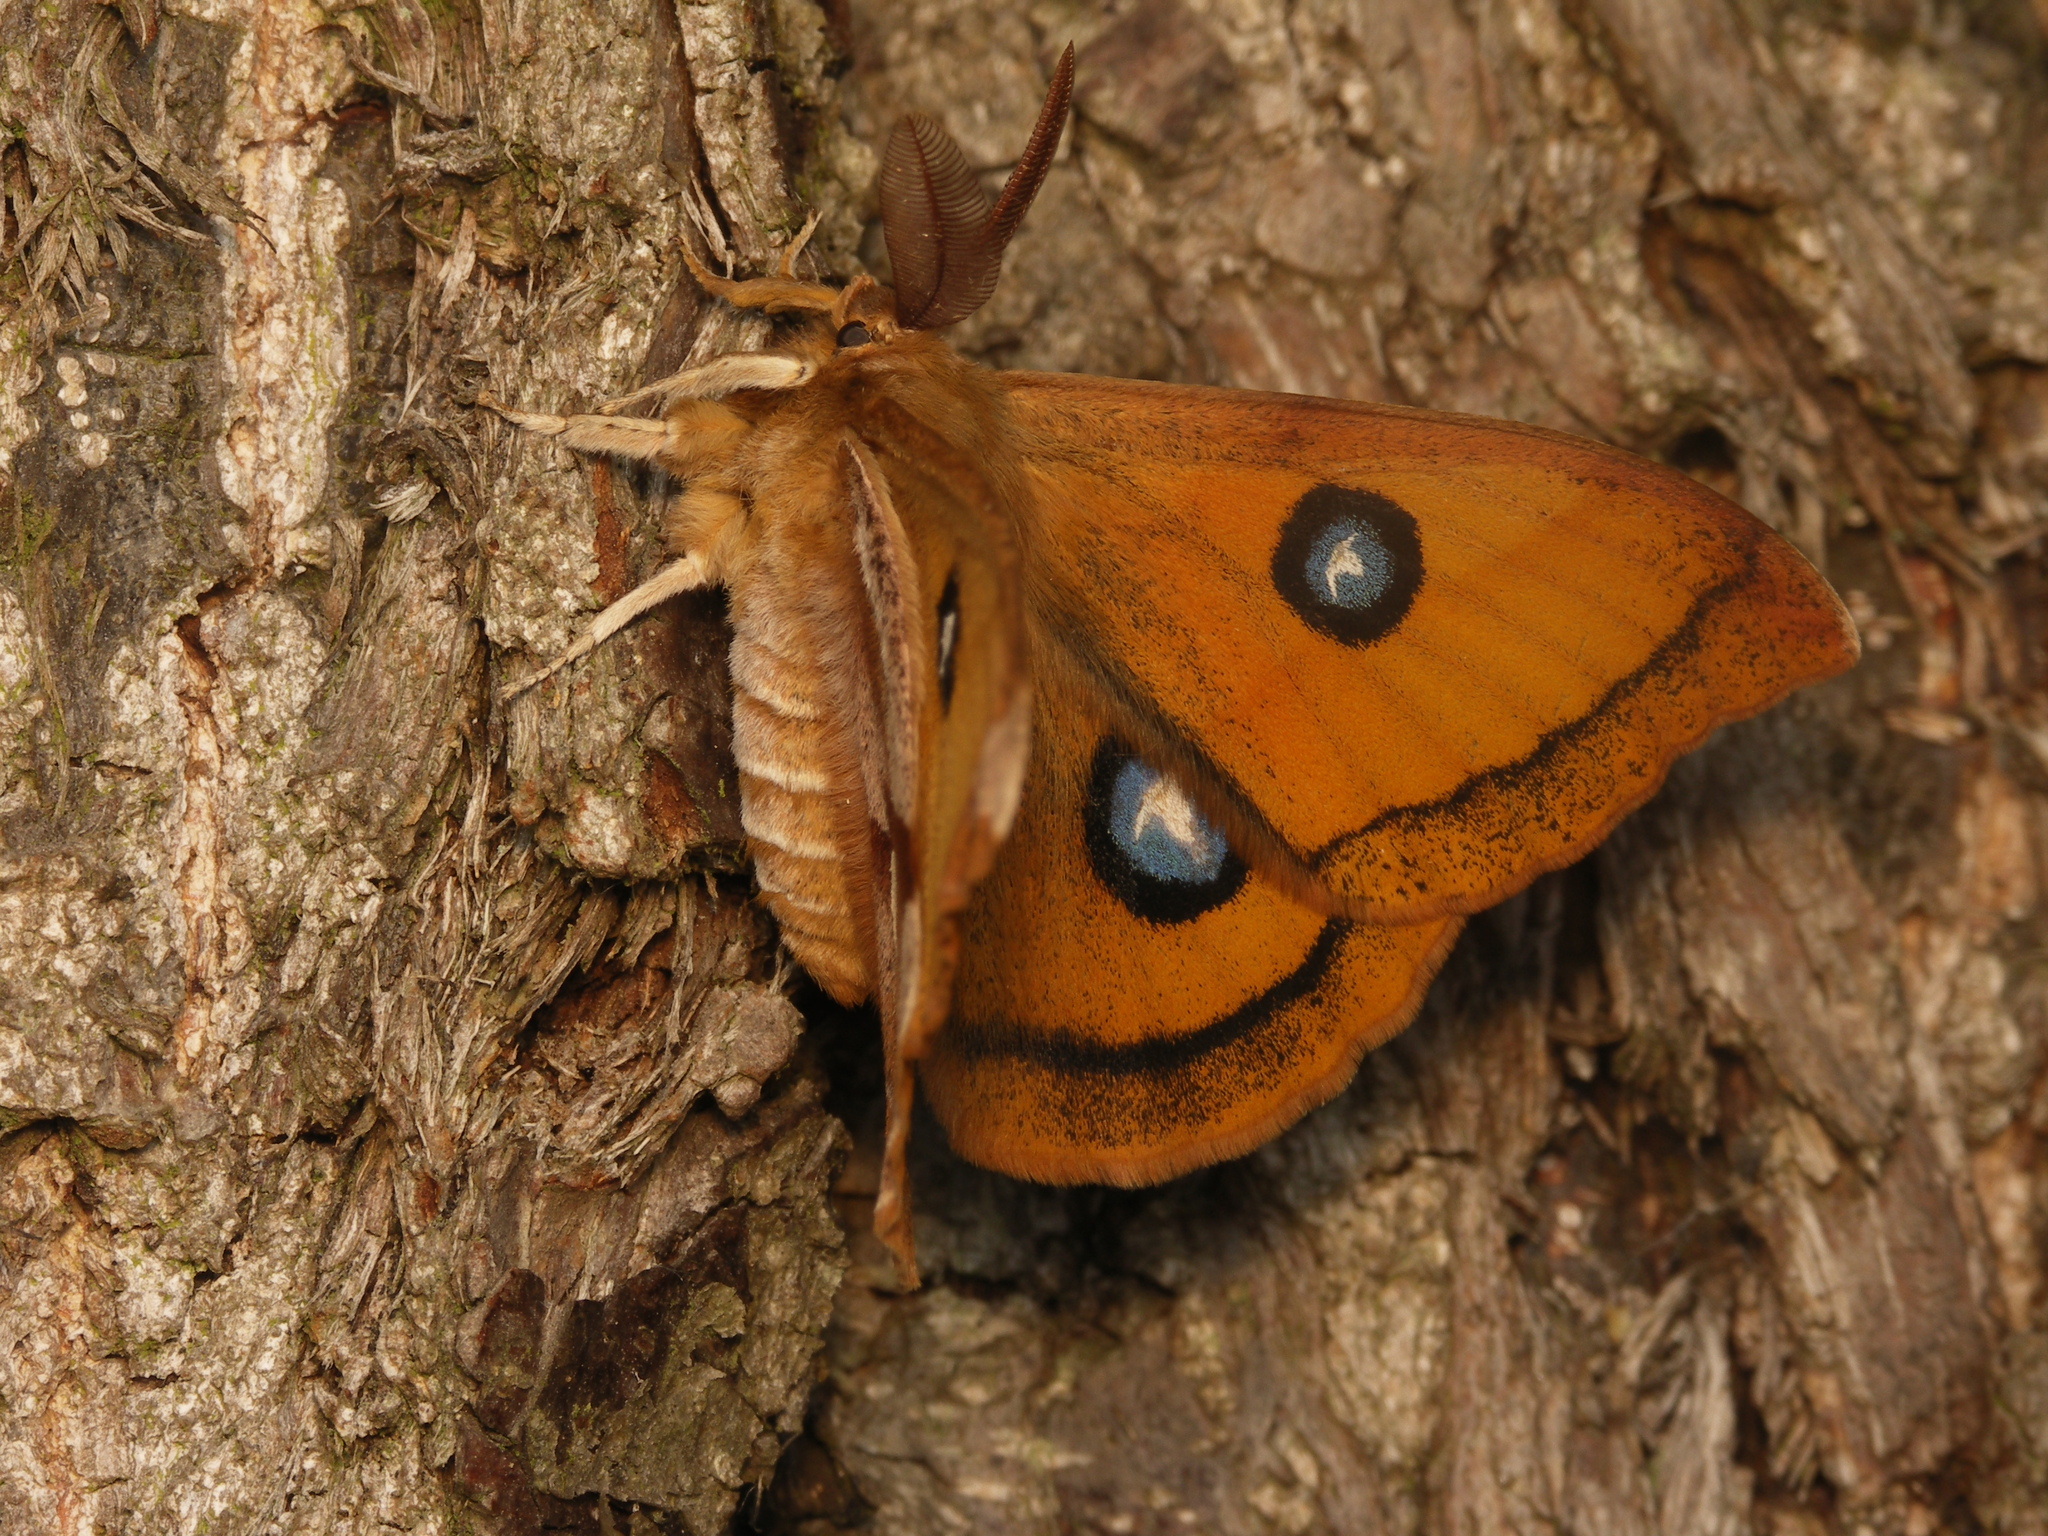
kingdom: Animalia
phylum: Arthropoda
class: Insecta
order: Lepidoptera
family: Saturniidae
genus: Aglia
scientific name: Aglia tau
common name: Tau emperor
